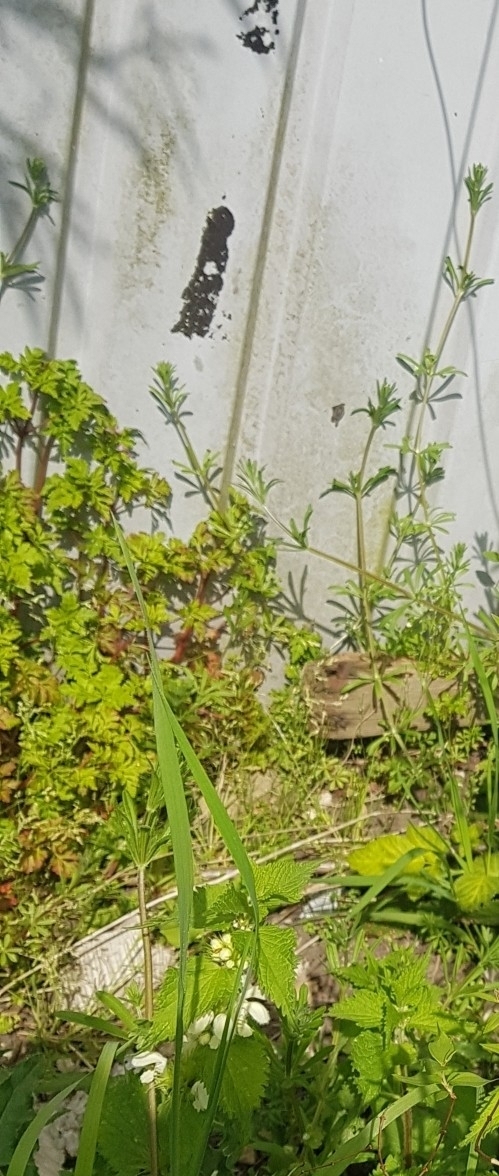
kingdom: Plantae
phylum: Tracheophyta
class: Magnoliopsida
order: Geraniales
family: Geraniaceae
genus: Geranium
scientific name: Geranium robertianum
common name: Herb-robert
